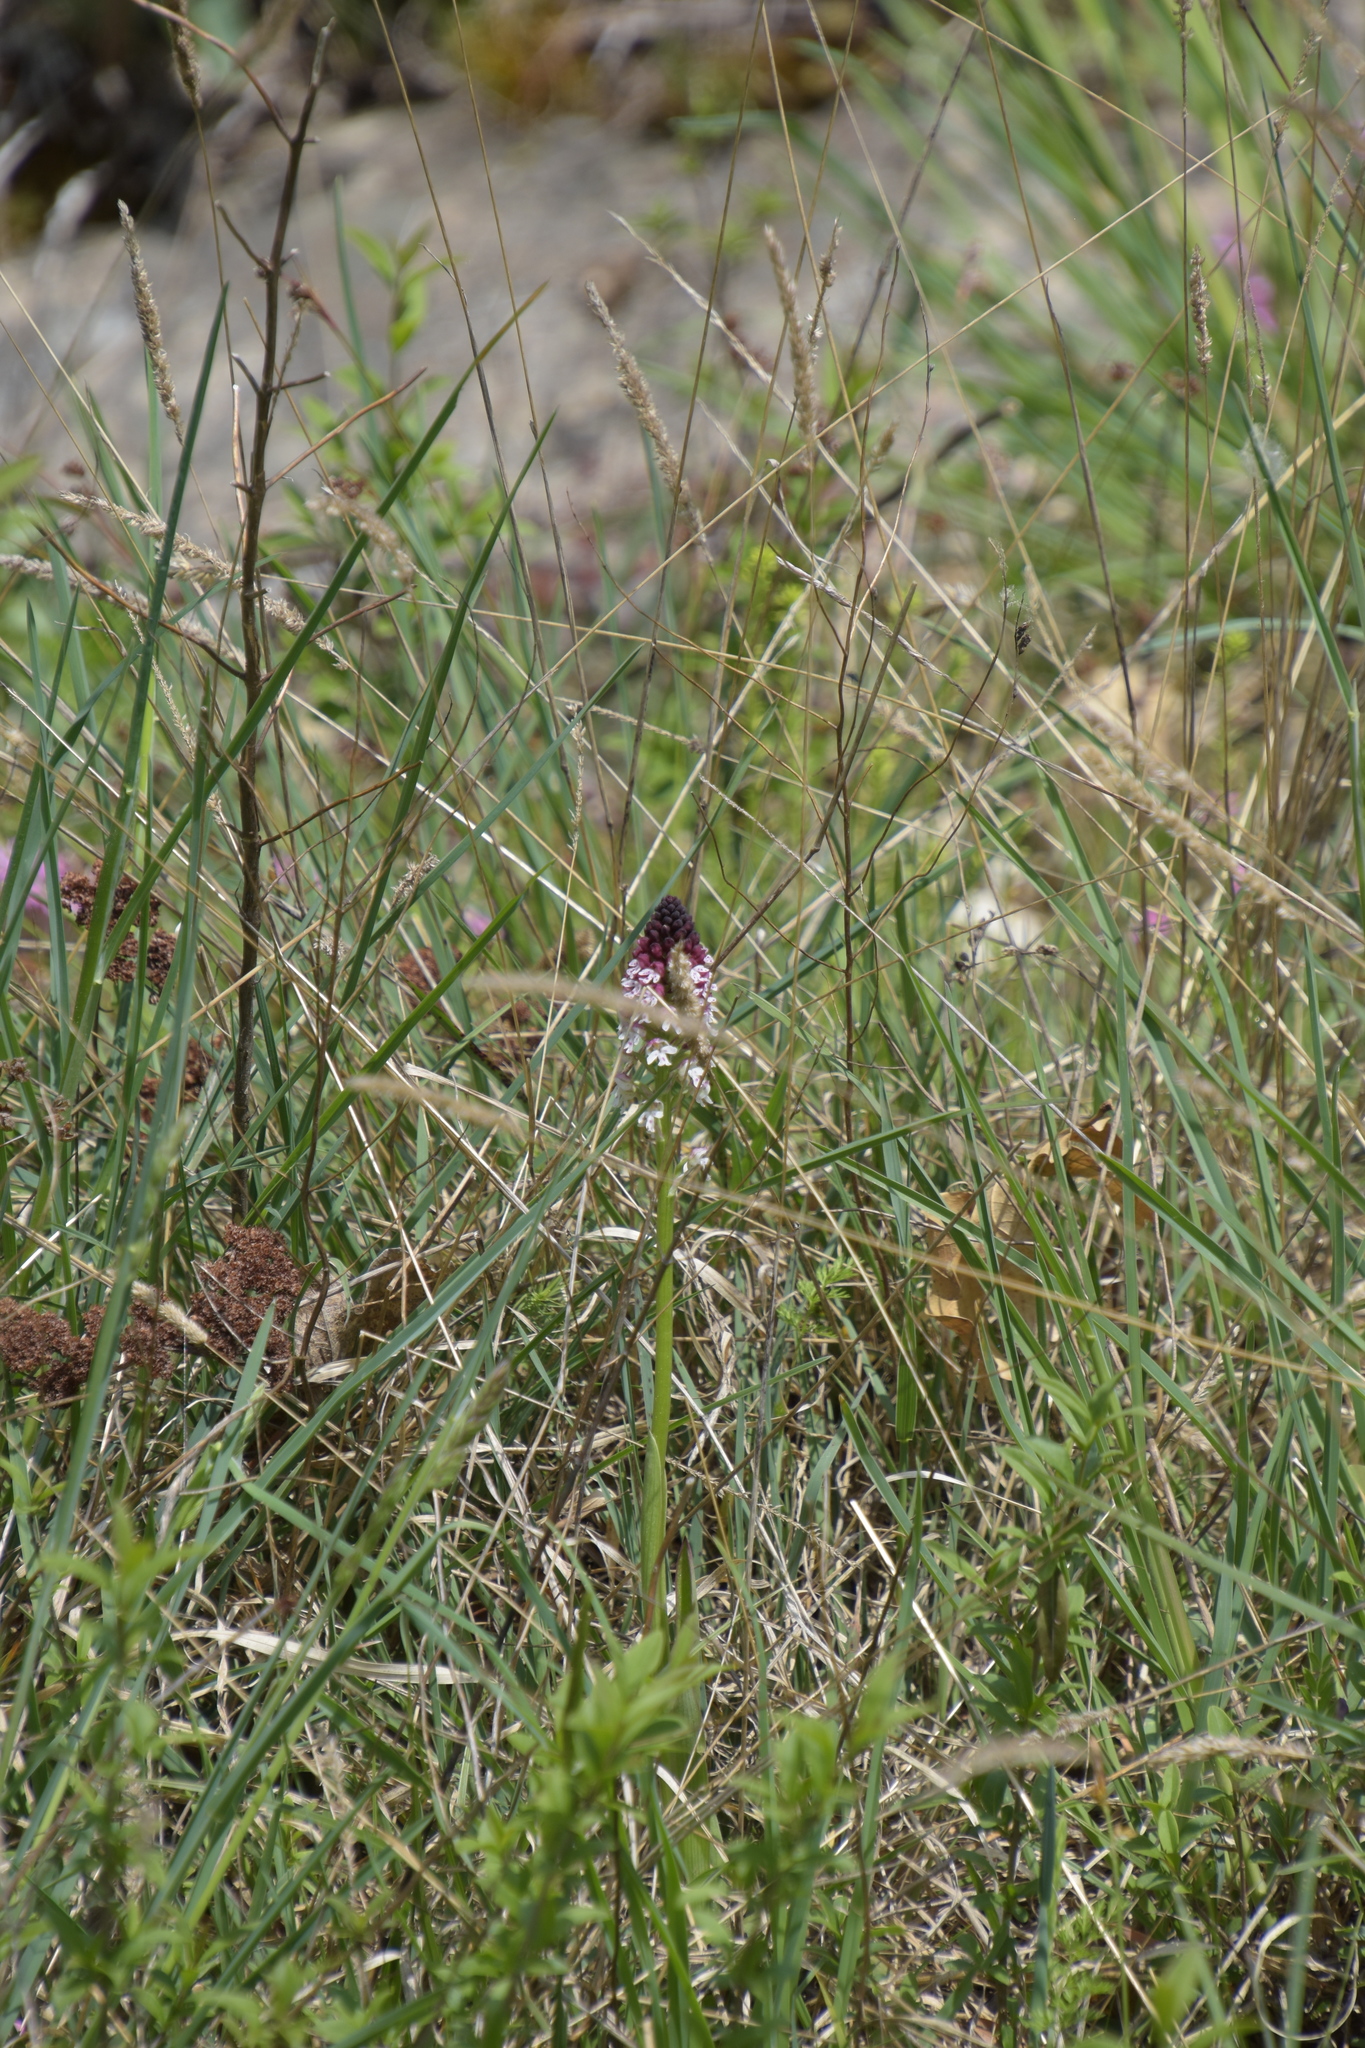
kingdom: Plantae
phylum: Tracheophyta
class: Liliopsida
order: Asparagales
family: Orchidaceae
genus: Neotinea
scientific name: Neotinea ustulata
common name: Burnt orchid
